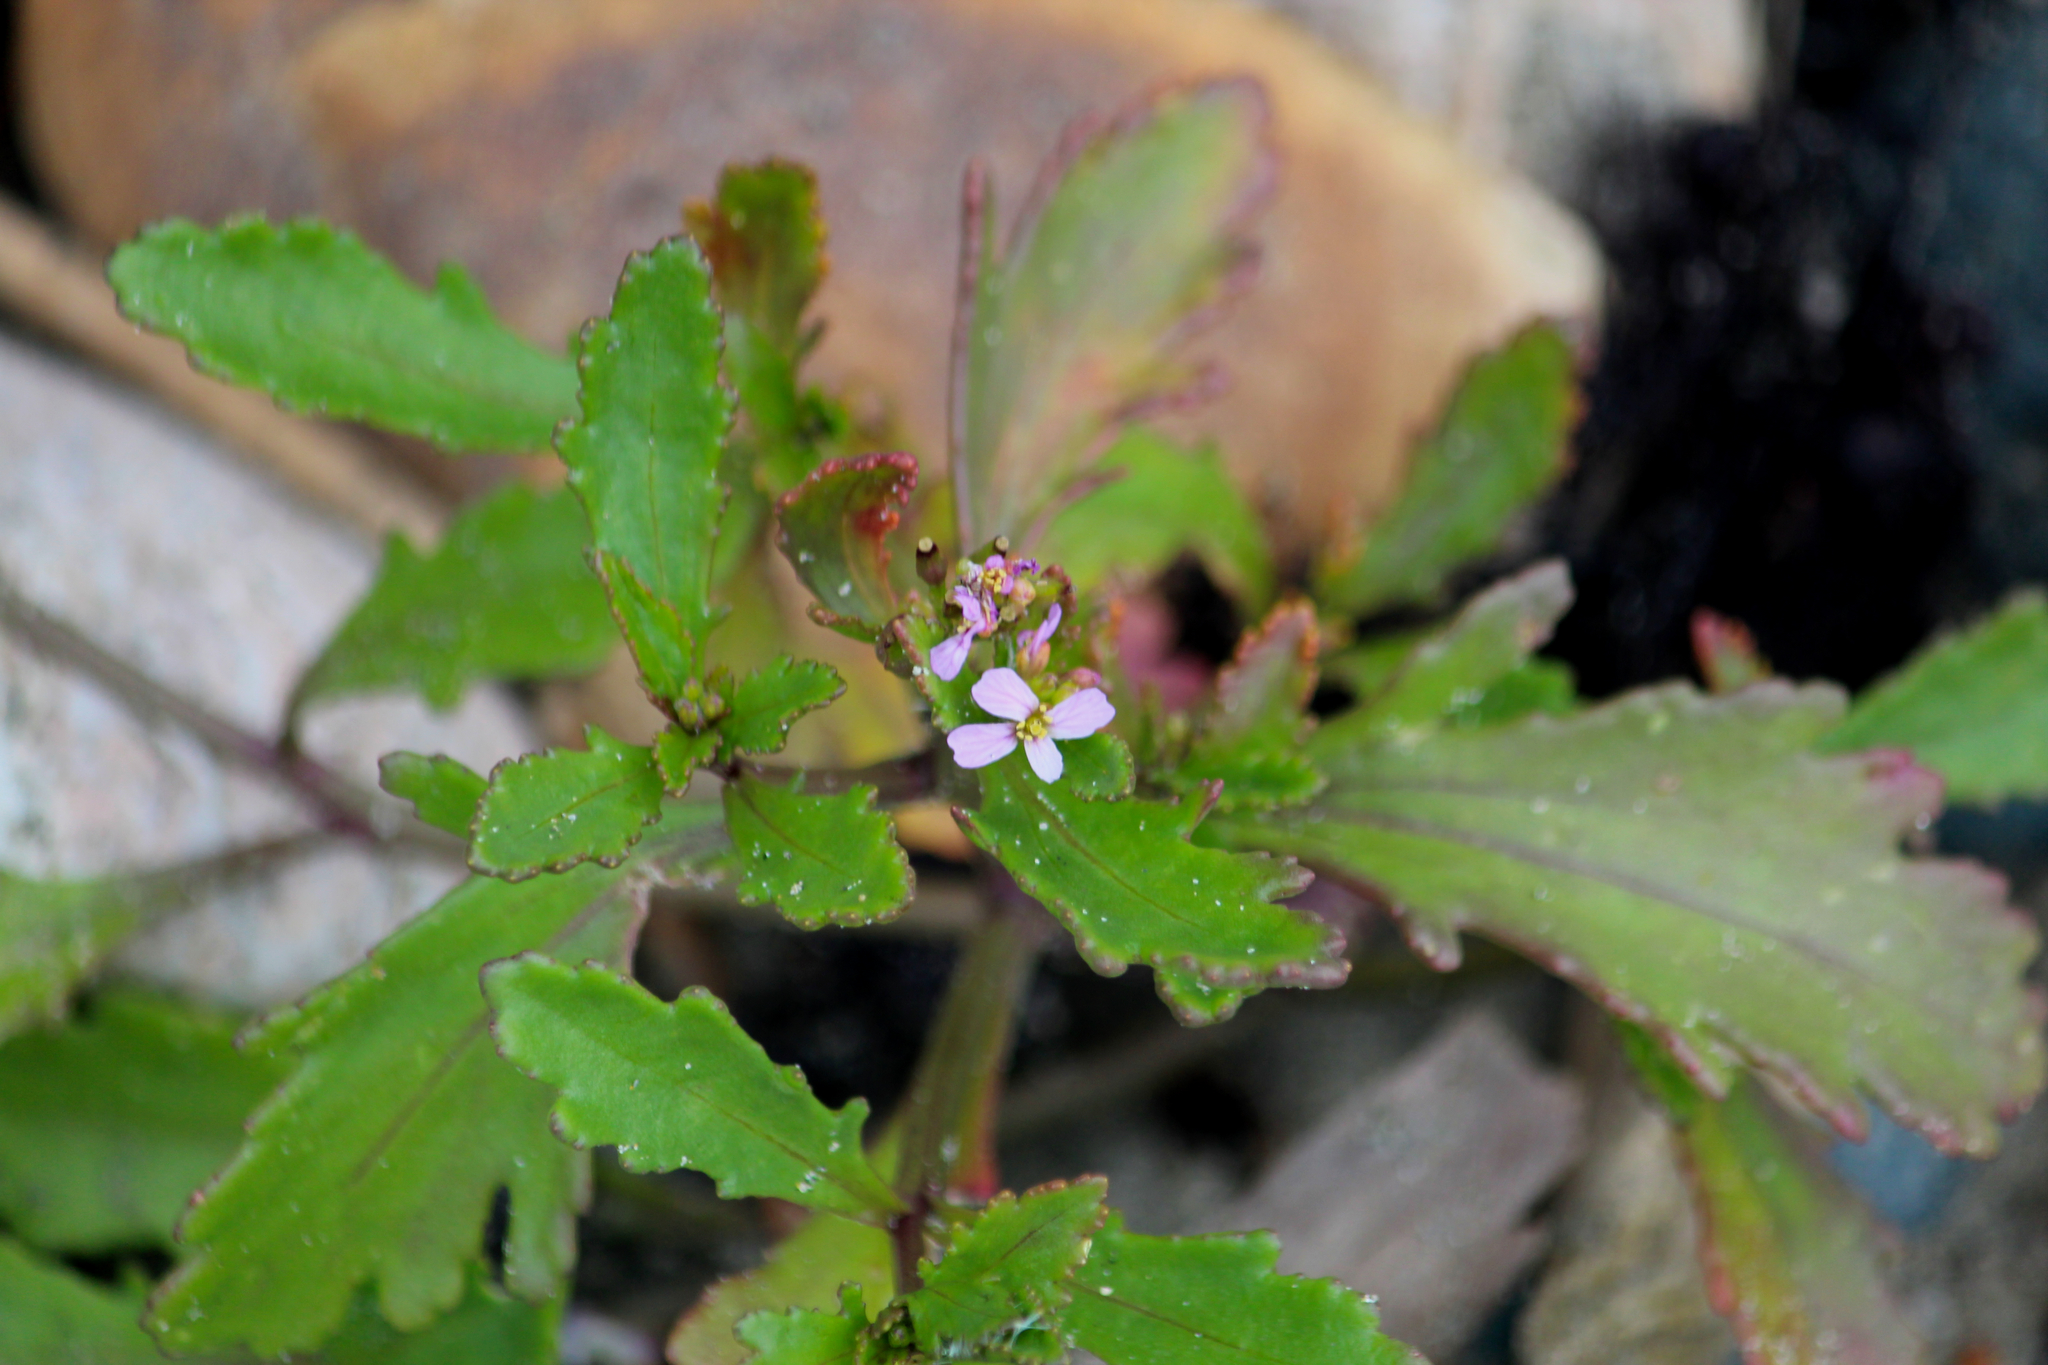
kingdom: Plantae
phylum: Tracheophyta
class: Magnoliopsida
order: Brassicales
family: Brassicaceae
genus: Cakile
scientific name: Cakile edentula
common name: American sea rocket
